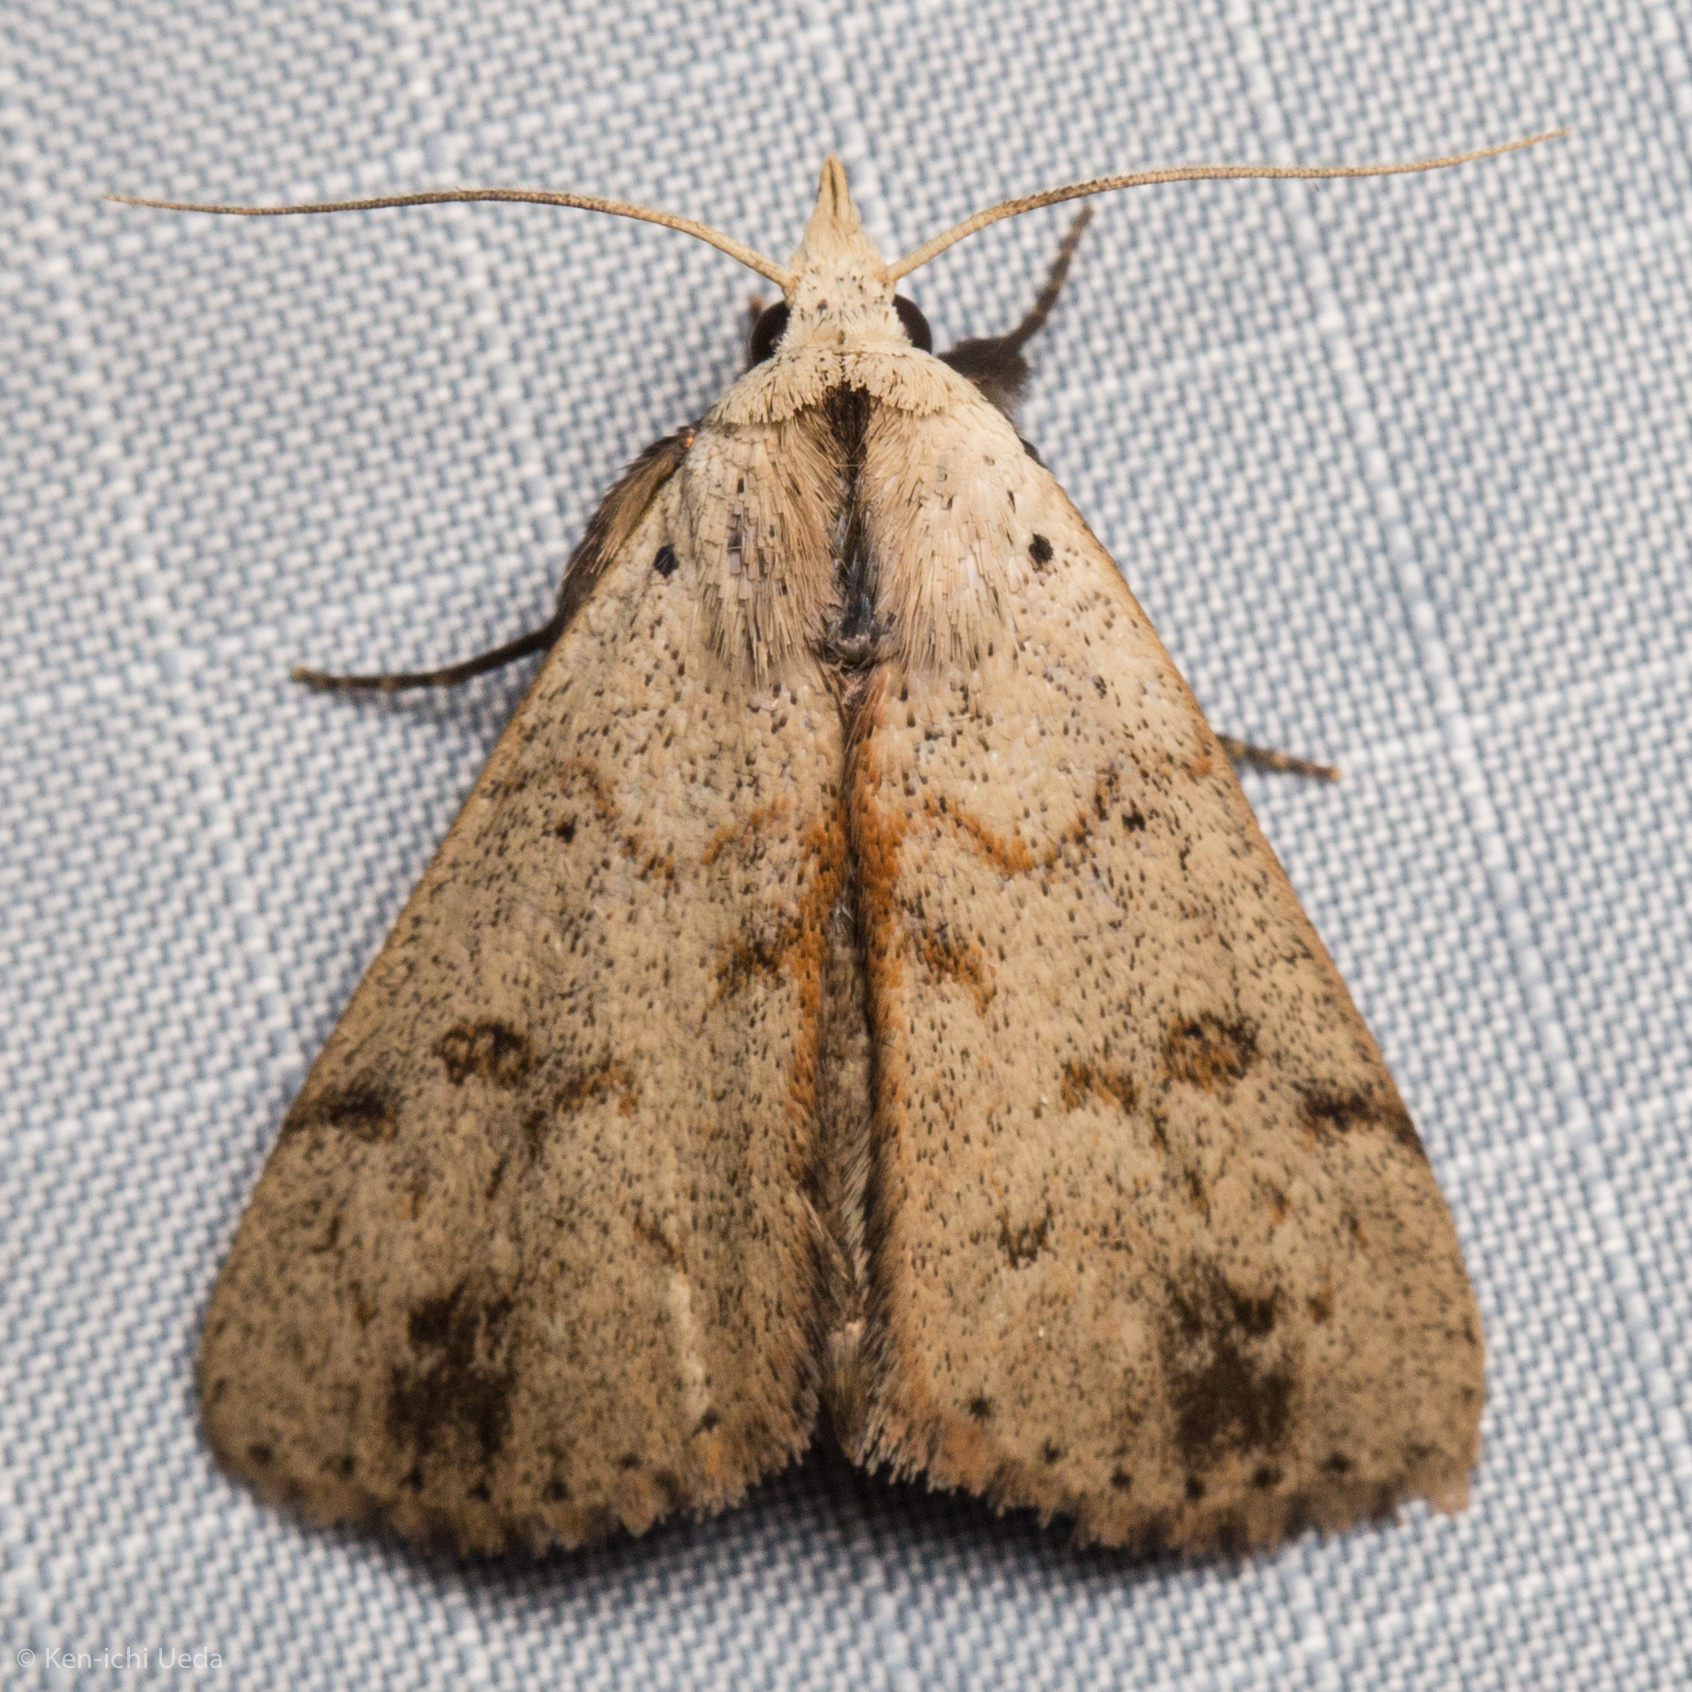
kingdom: Animalia
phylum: Arthropoda
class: Insecta
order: Lepidoptera
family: Erebidae
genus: Scolecocampa
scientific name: Scolecocampa liburna
